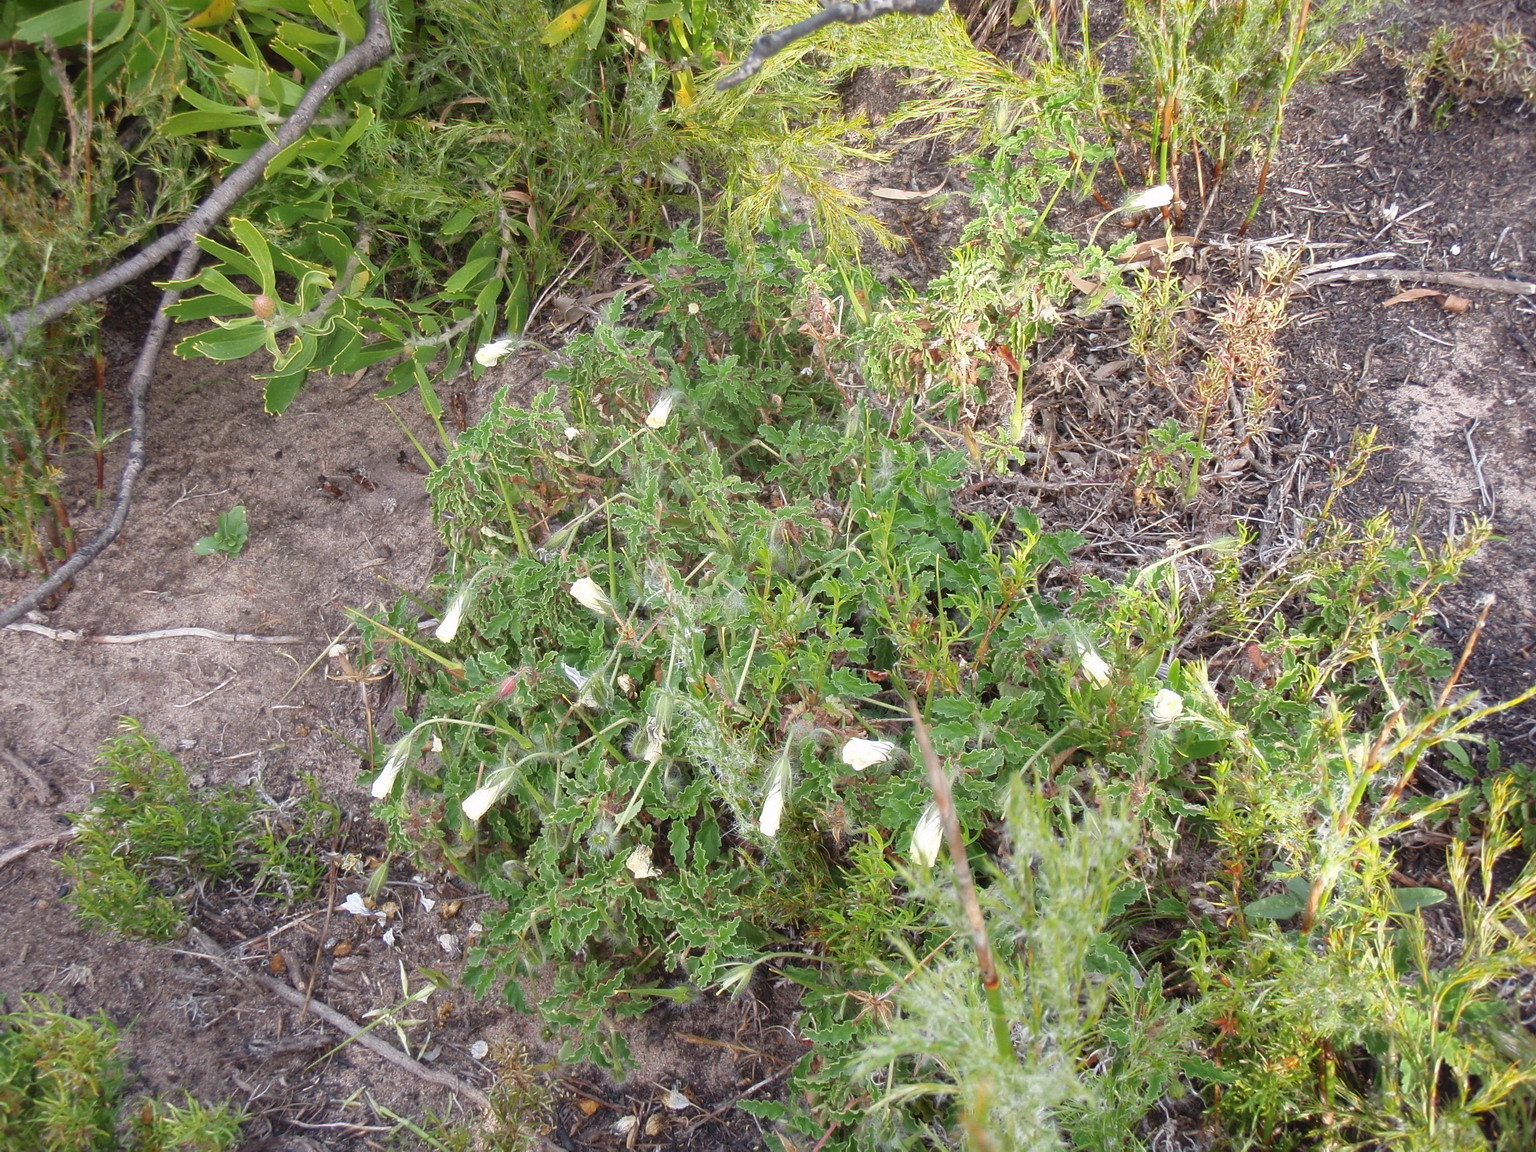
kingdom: Plantae
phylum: Tracheophyta
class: Magnoliopsida
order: Geraniales
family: Geraniaceae
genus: Monsonia
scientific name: Monsonia emarginata
